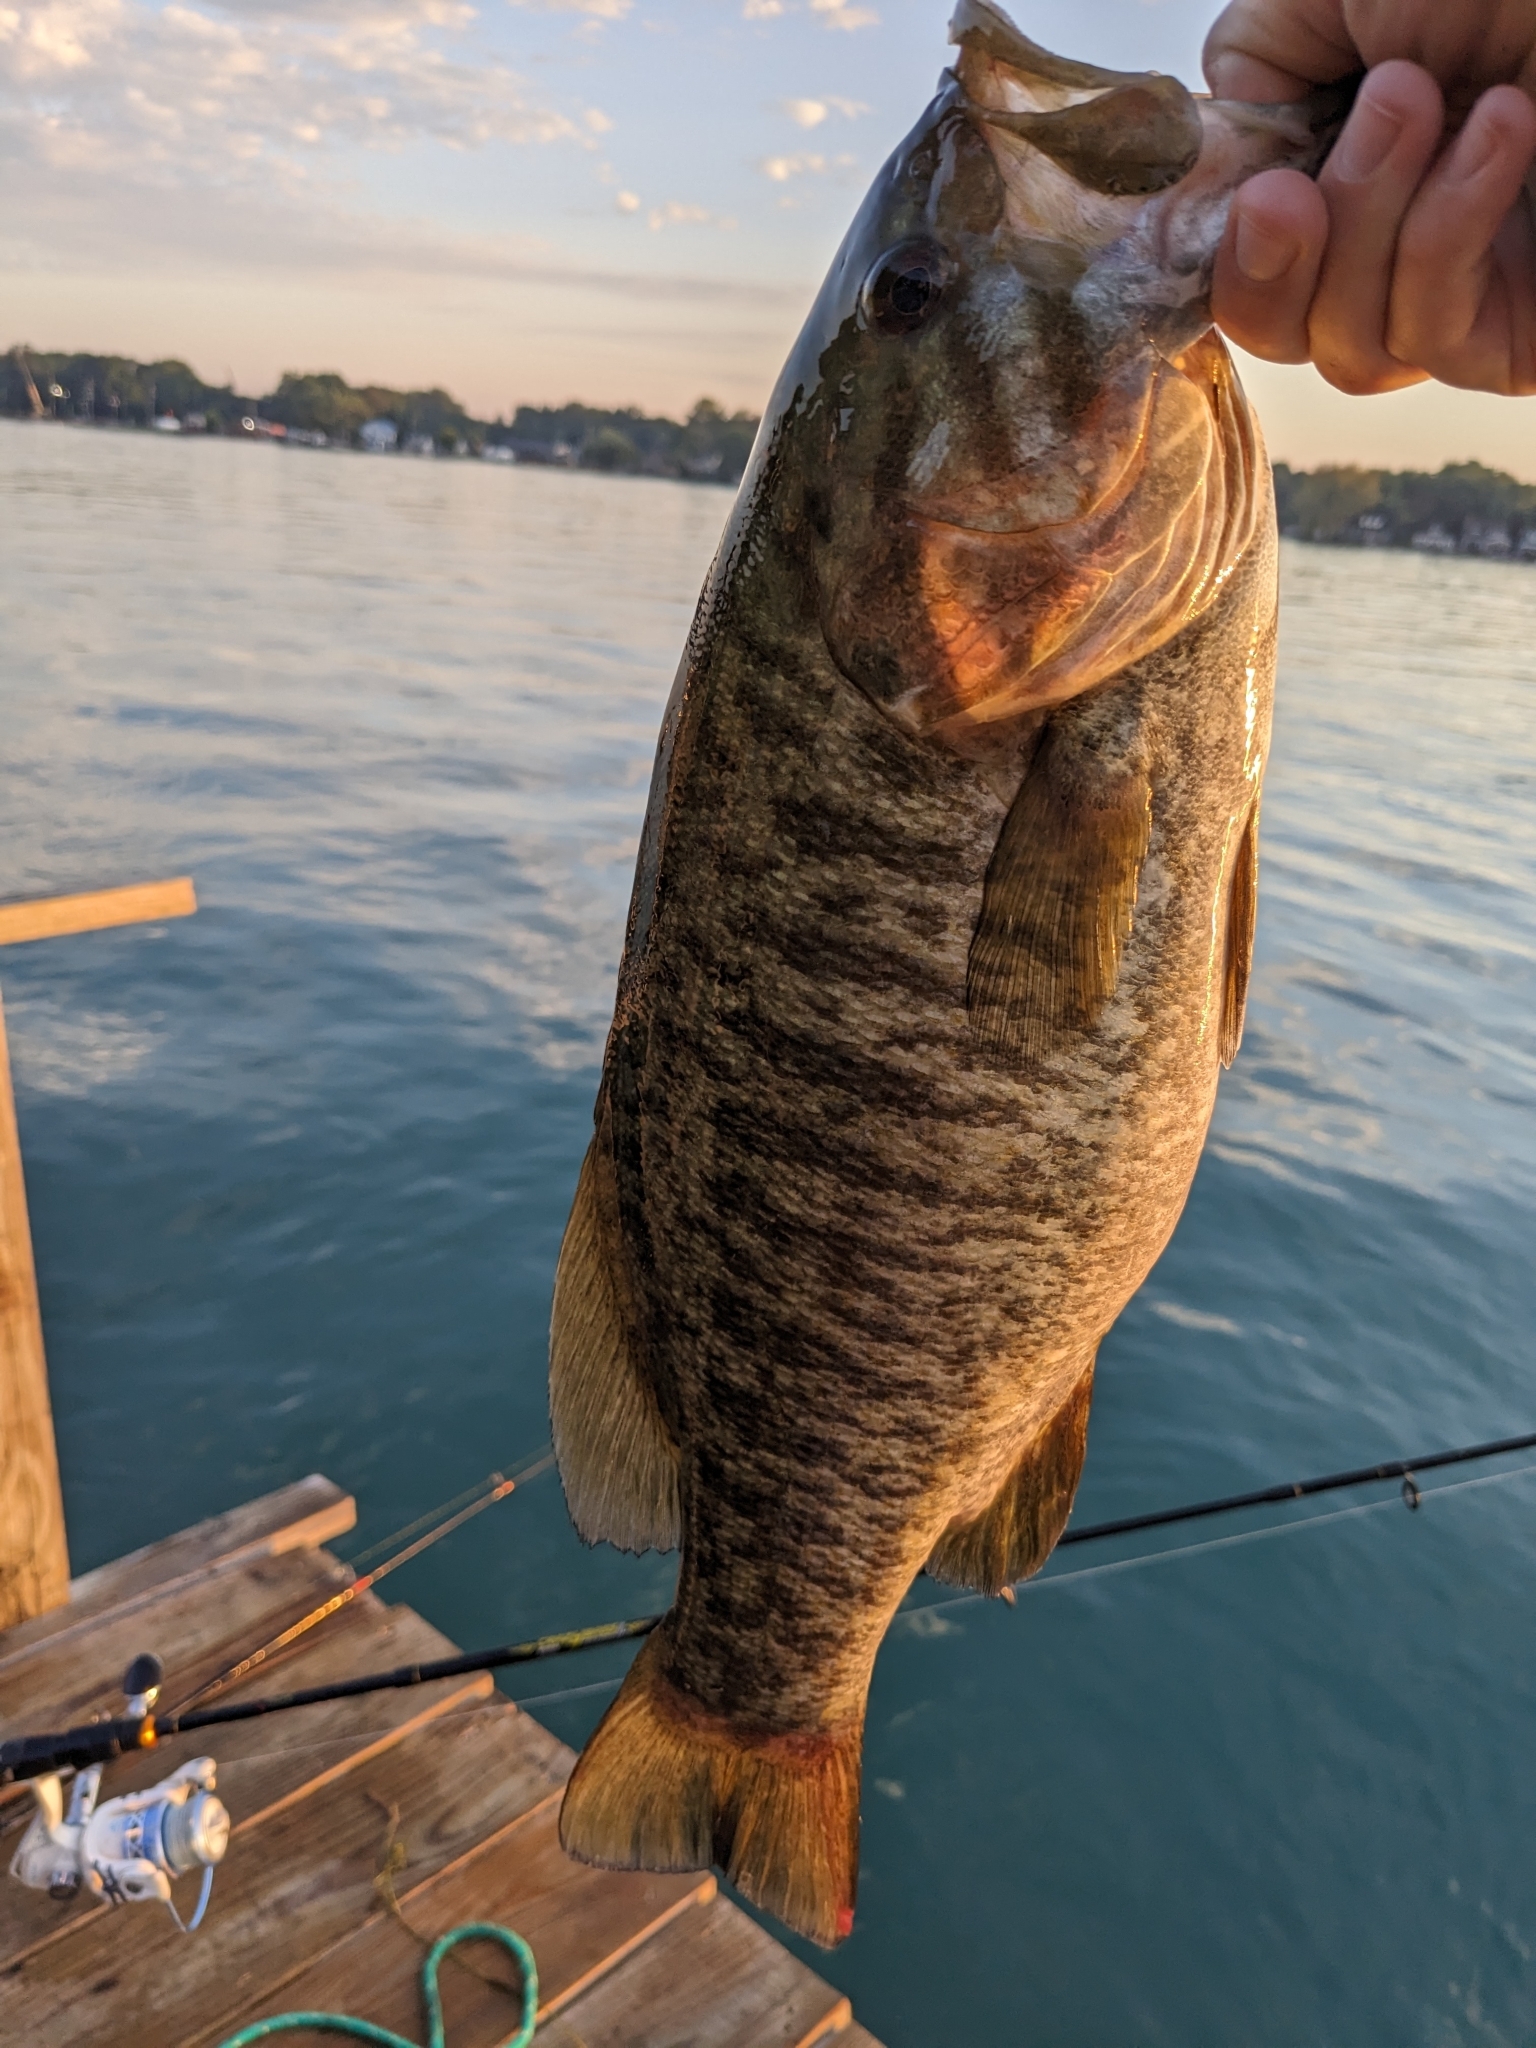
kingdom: Animalia
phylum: Chordata
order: Perciformes
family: Centrarchidae
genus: Micropterus
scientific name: Micropterus dolomieu
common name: Smallmouth bass
